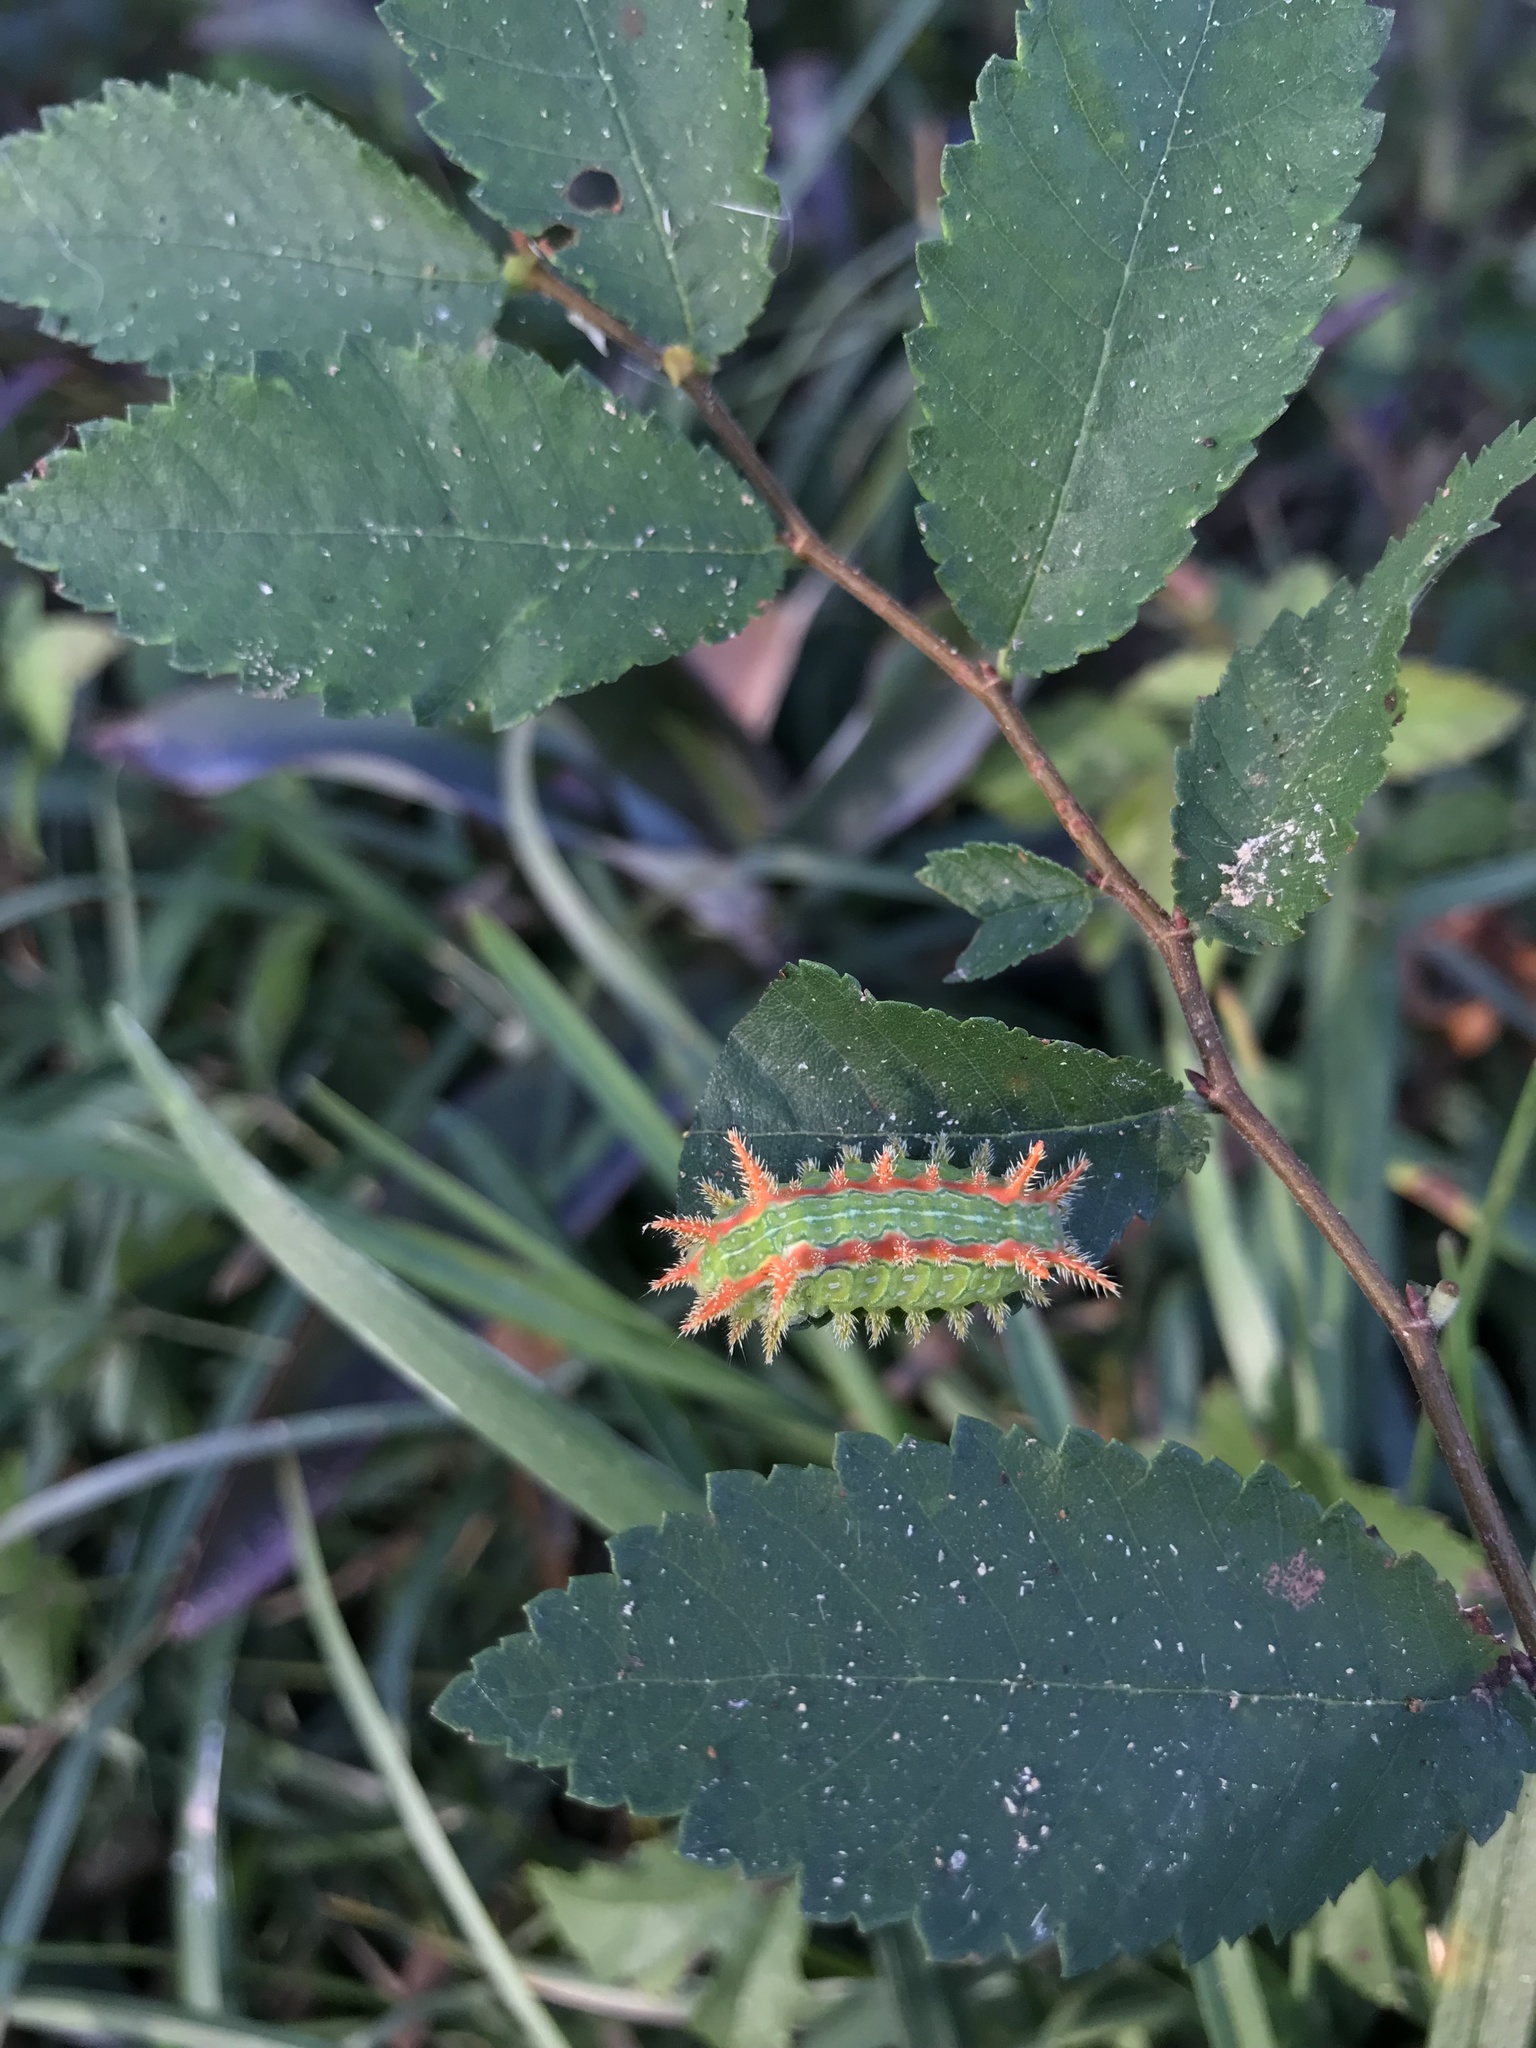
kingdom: Animalia
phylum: Arthropoda
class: Insecta
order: Lepidoptera
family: Limacodidae
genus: Euclea
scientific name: Euclea incisa
